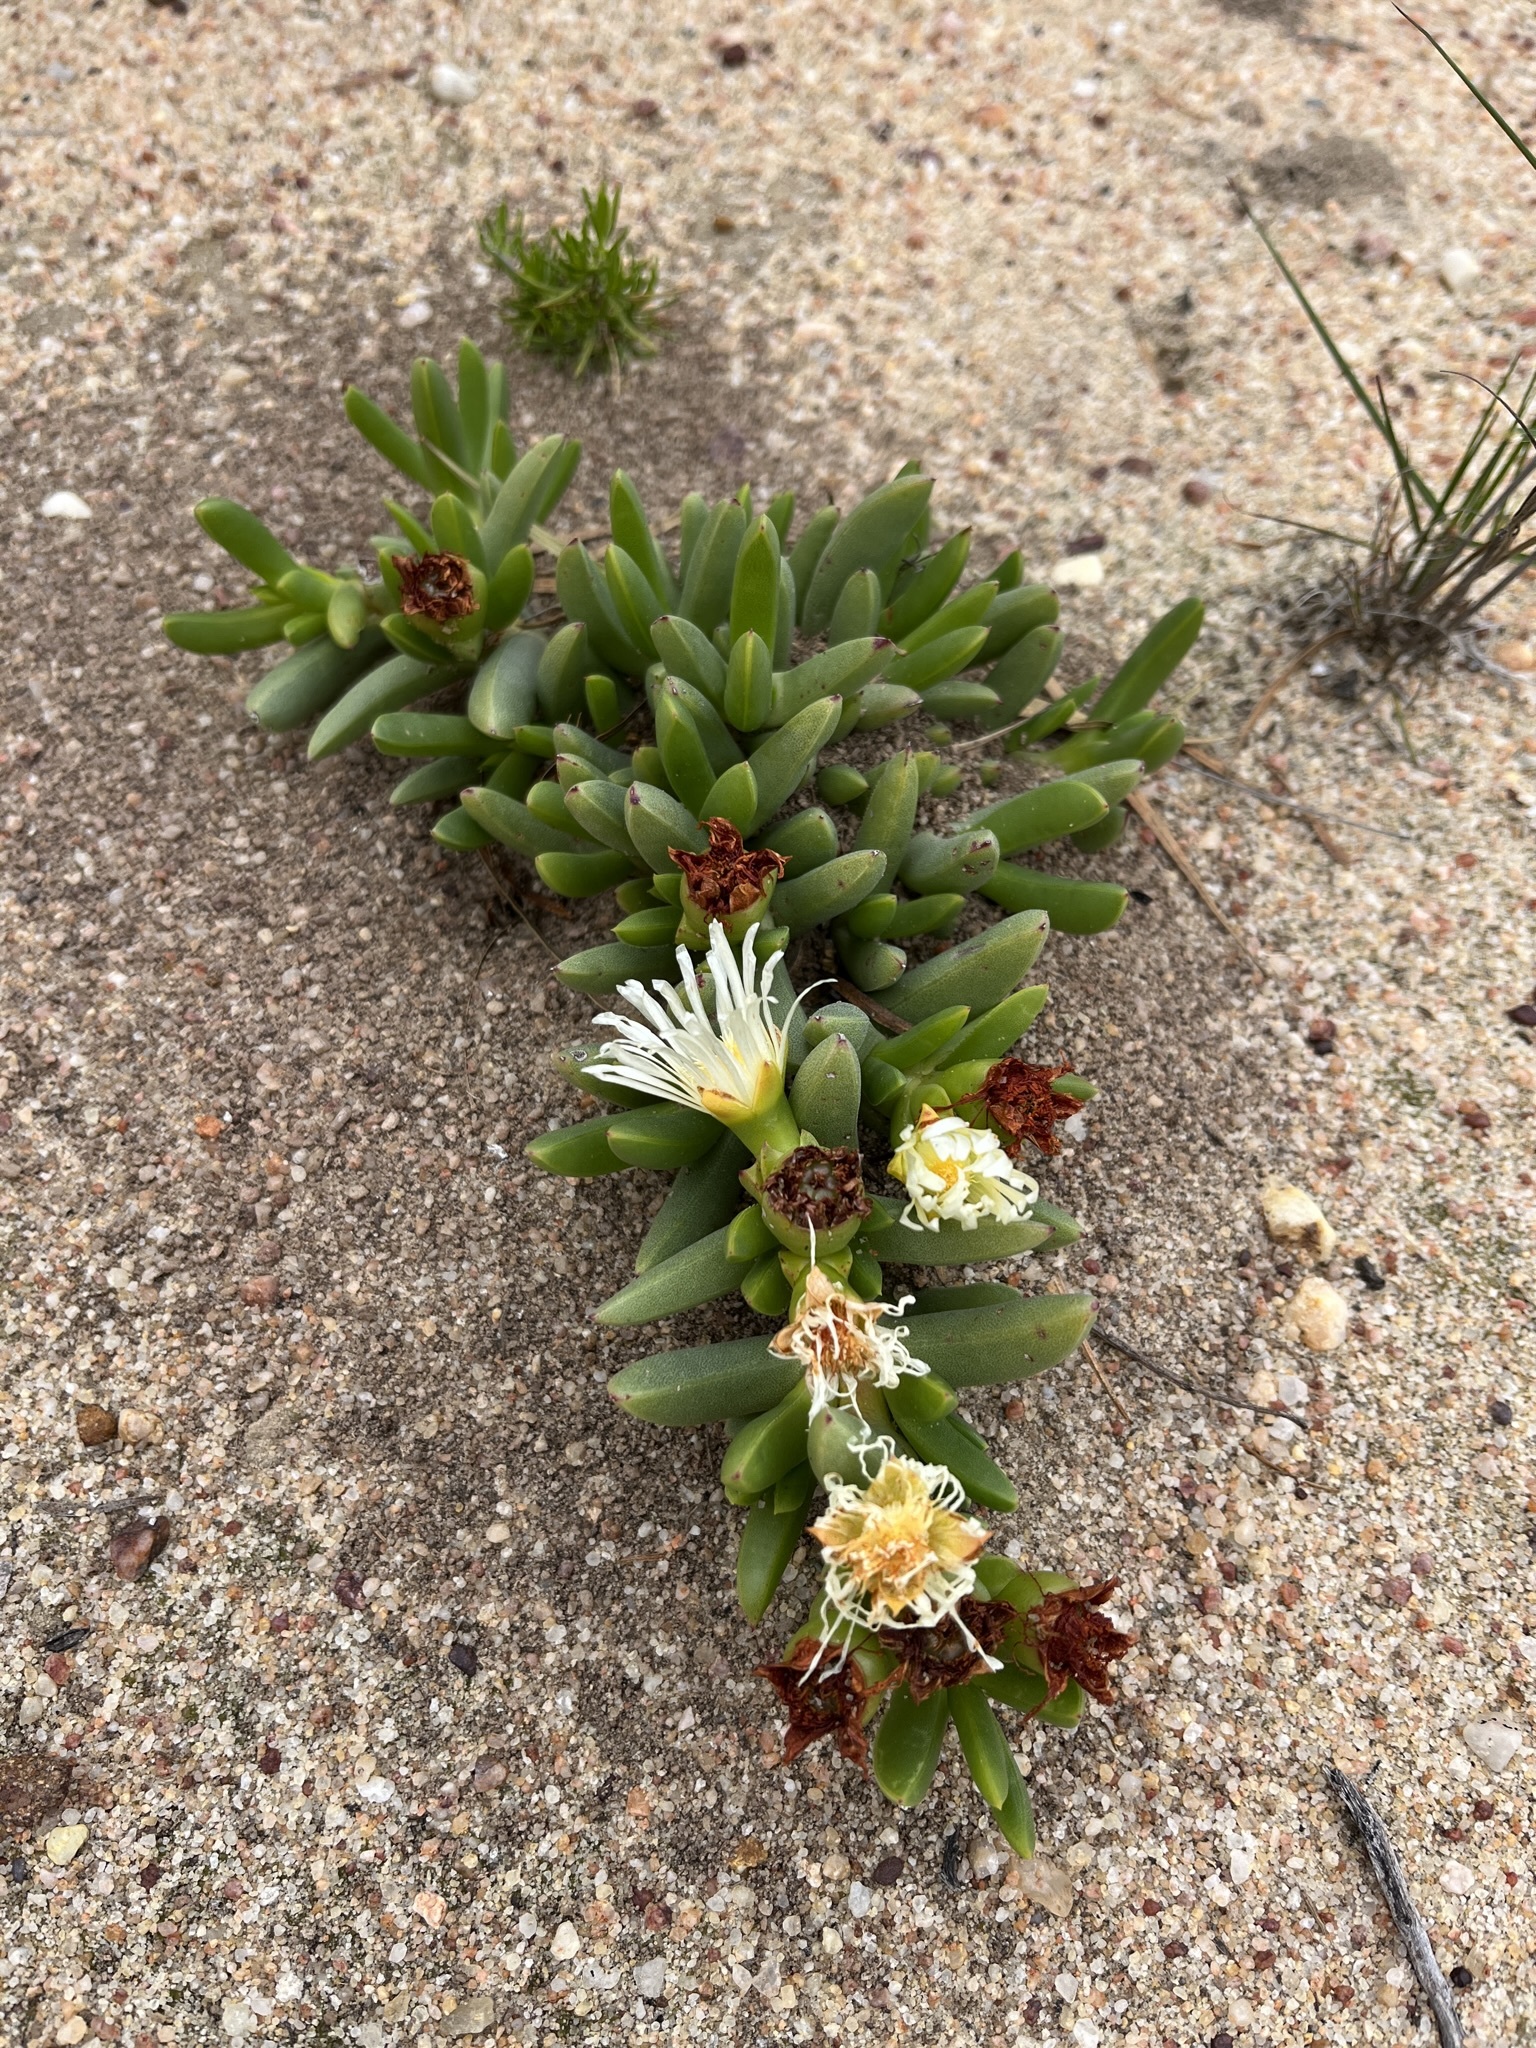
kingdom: Plantae
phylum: Tracheophyta
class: Magnoliopsida
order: Caryophyllales
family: Aizoaceae
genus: Ruschia
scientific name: Ruschia dichroa
